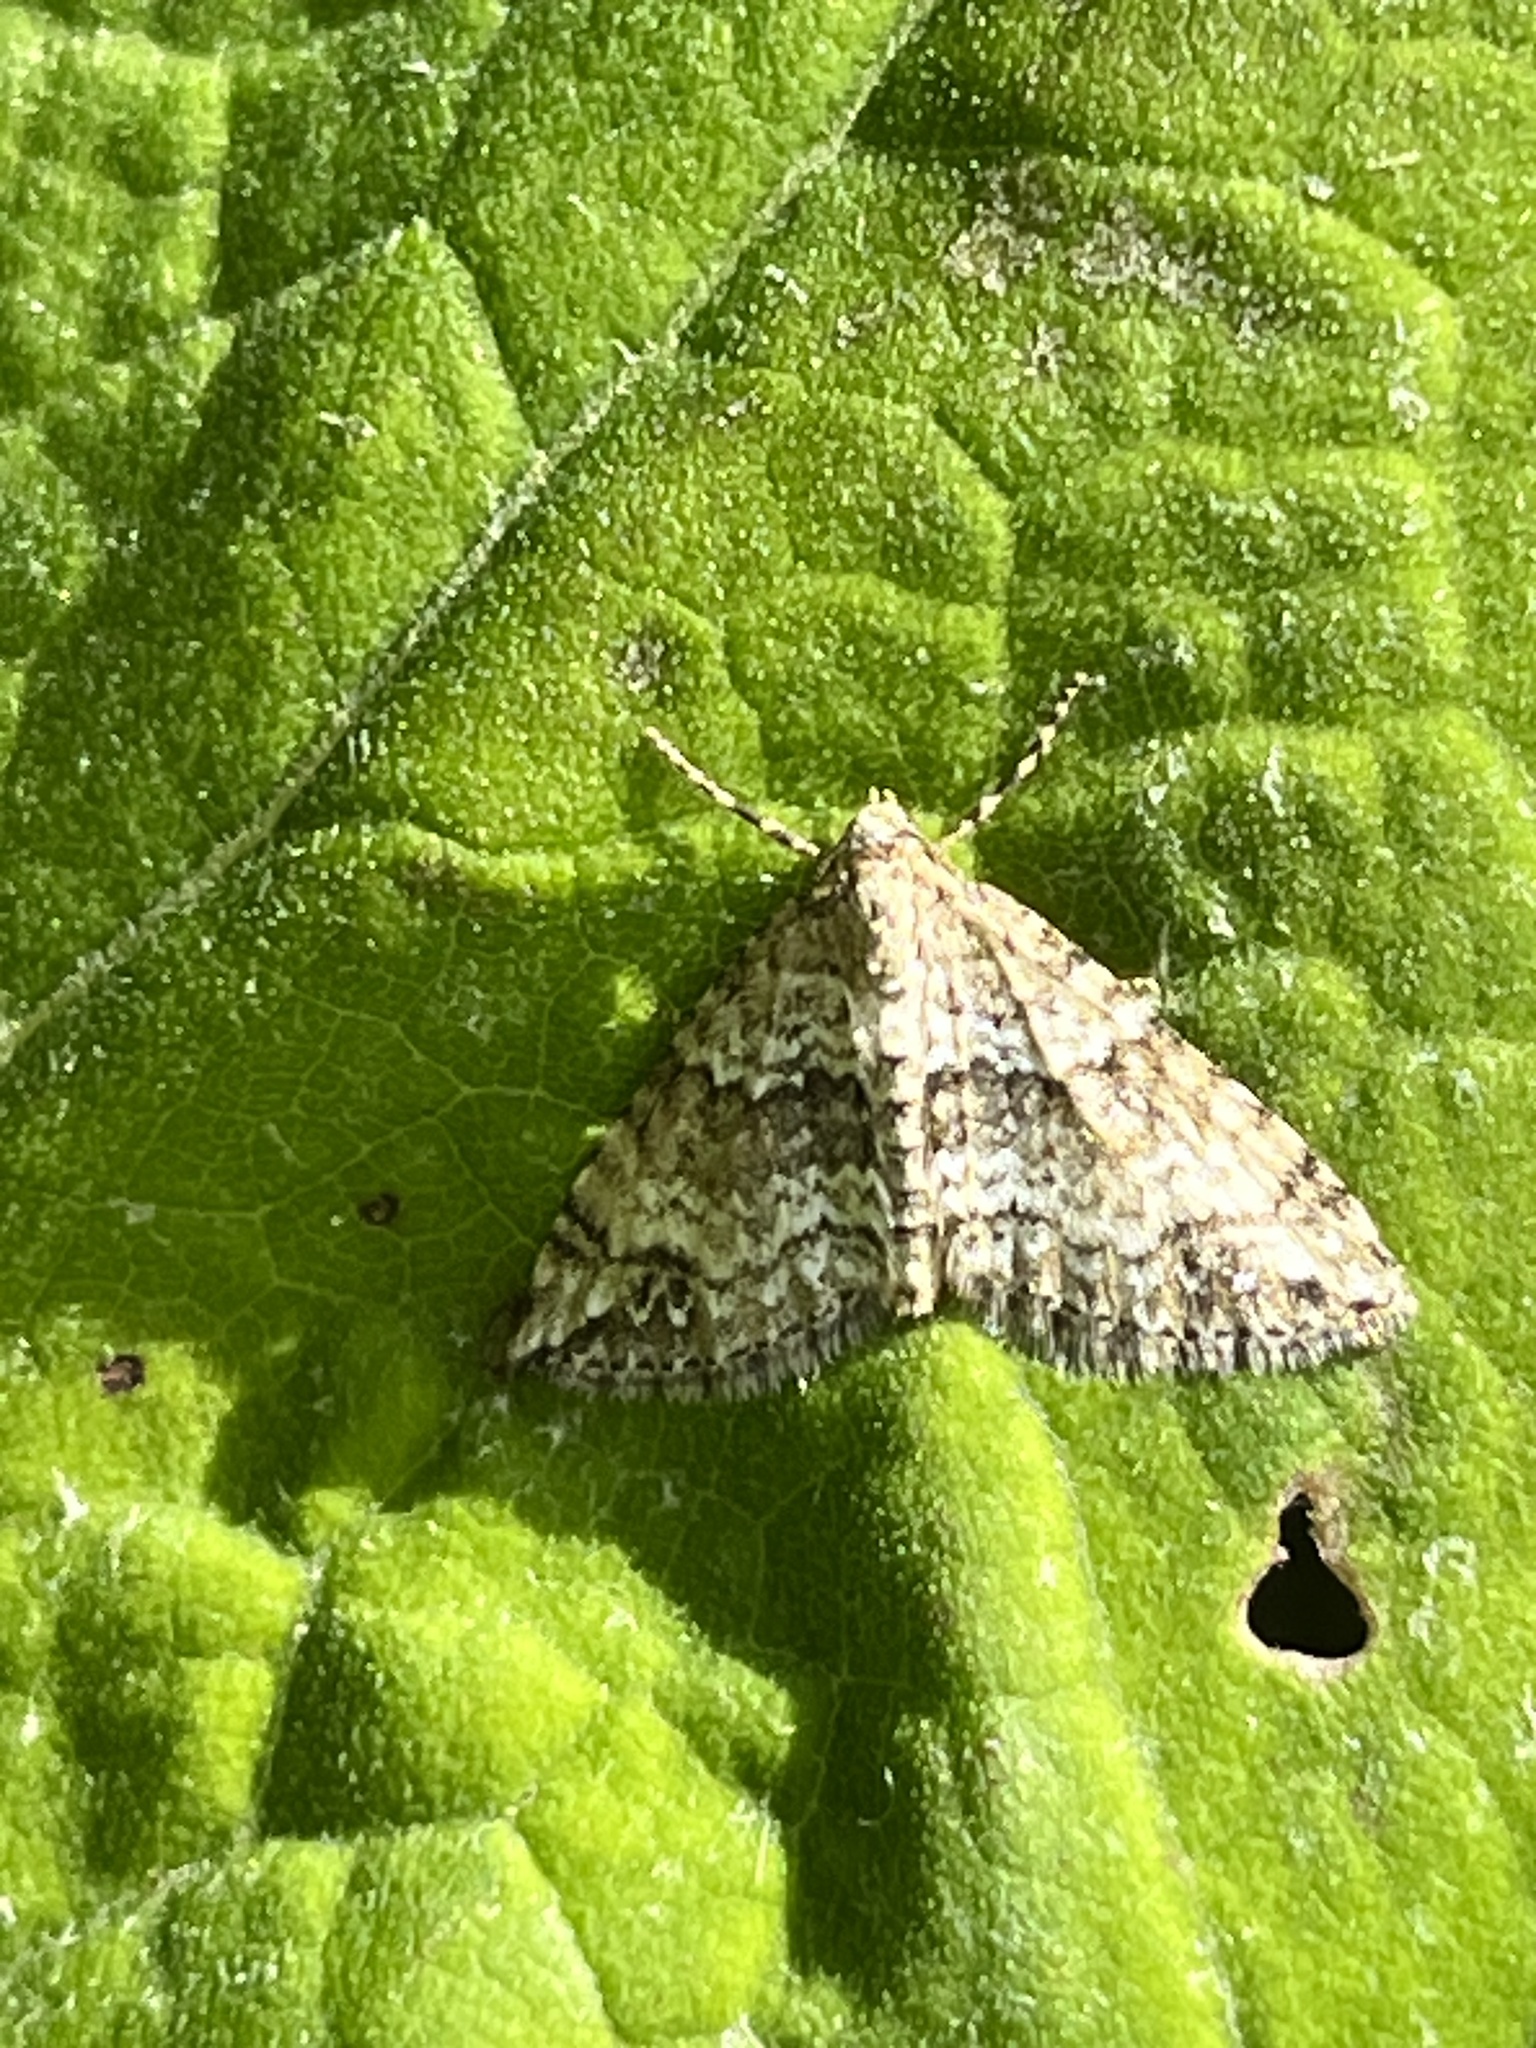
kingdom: Animalia
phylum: Arthropoda
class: Insecta
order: Lepidoptera
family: Geometridae
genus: Perizoma
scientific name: Perizoma didymata
